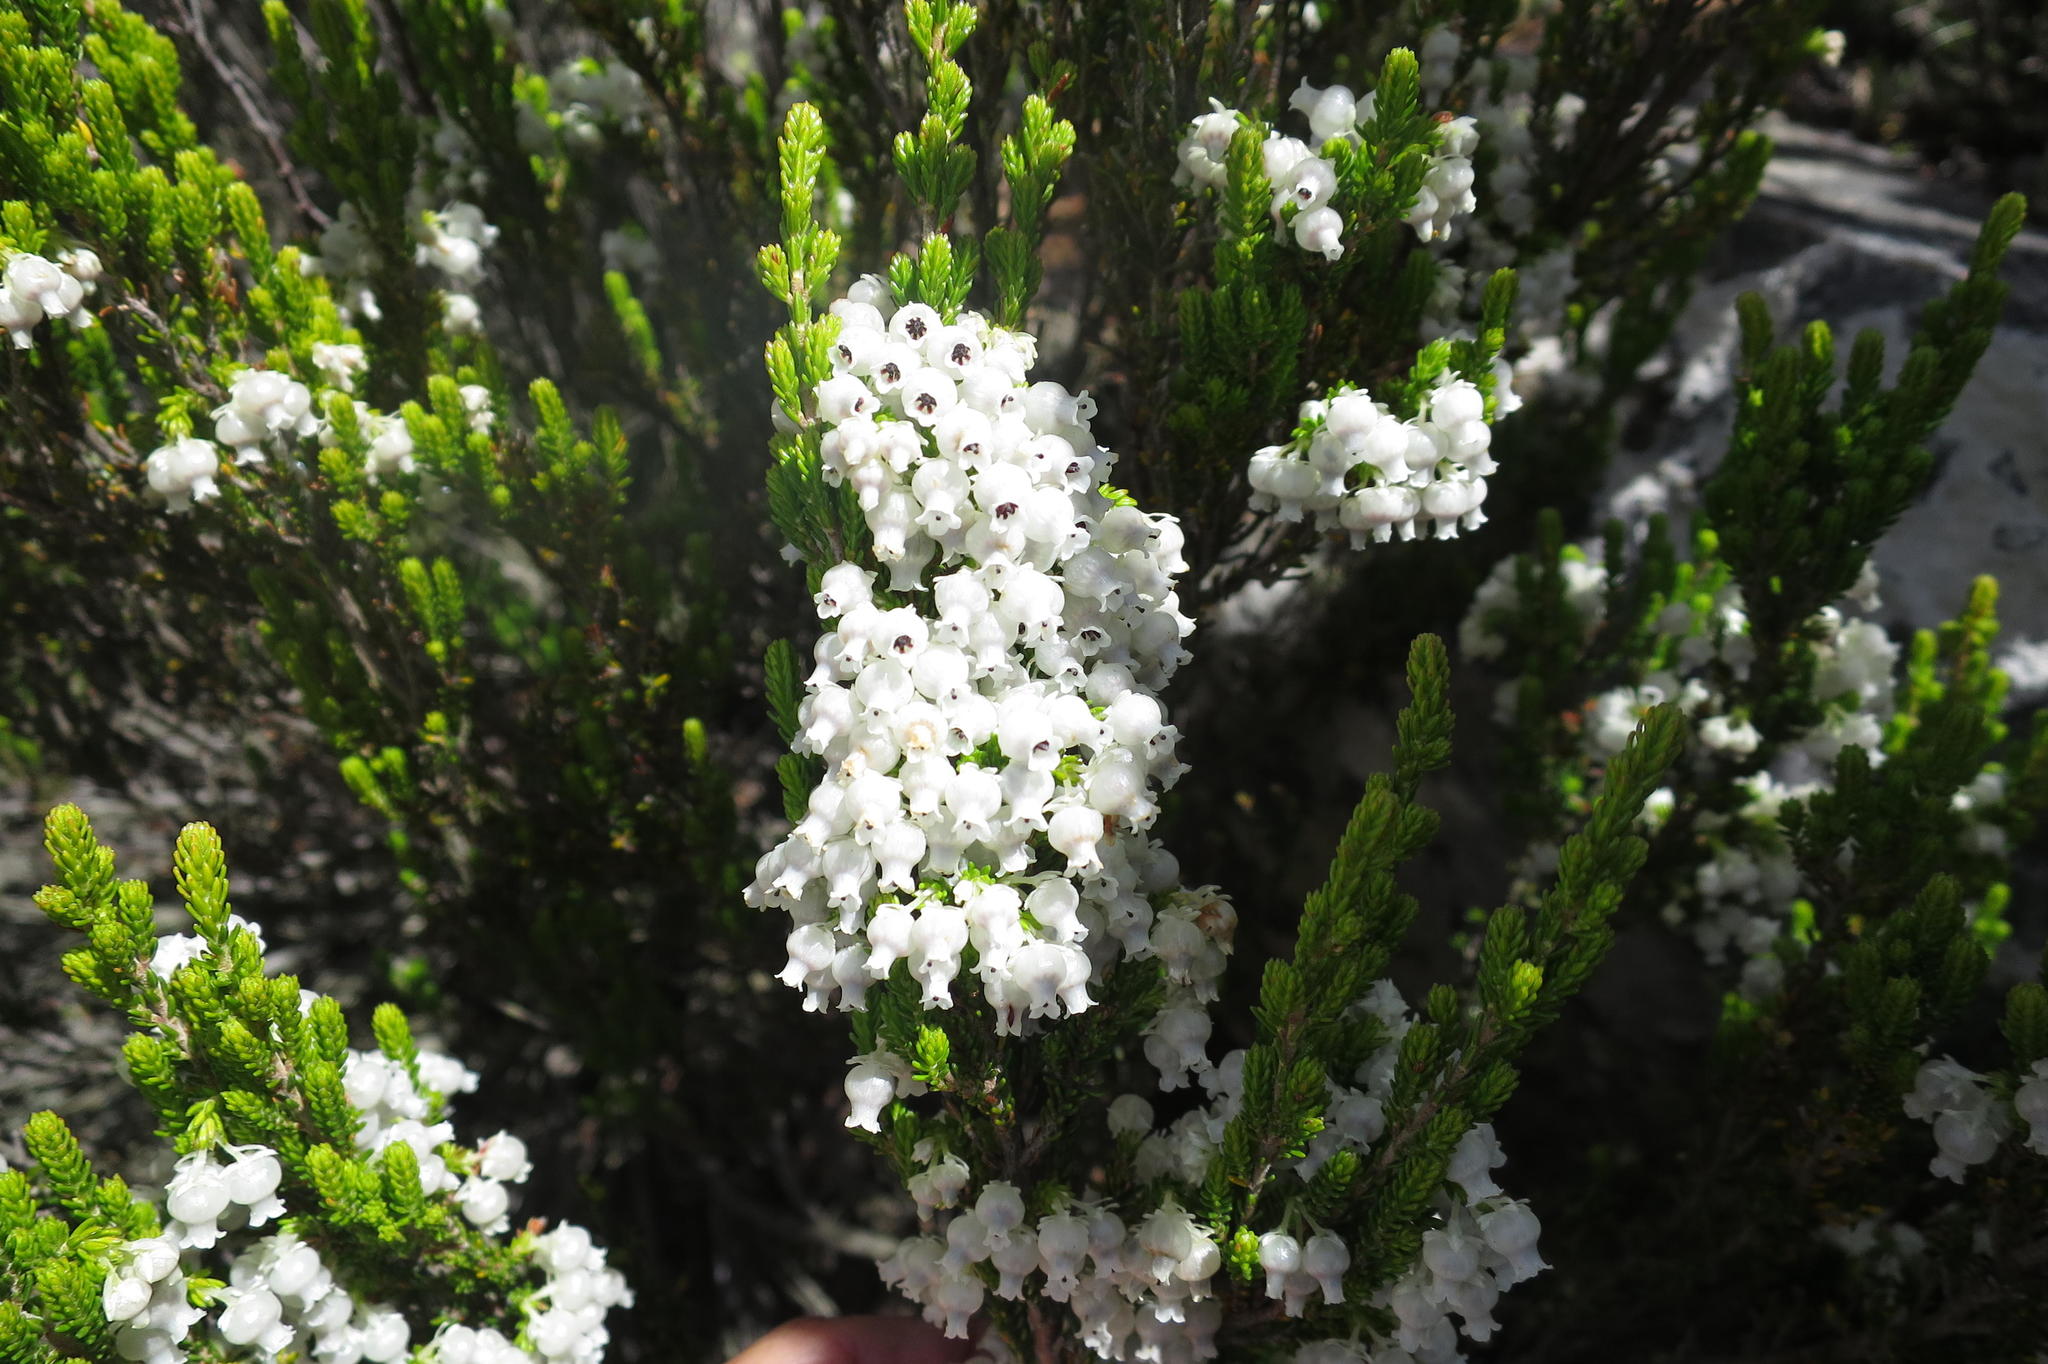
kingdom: Plantae
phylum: Tracheophyta
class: Magnoliopsida
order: Ericales
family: Ericaceae
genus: Erica
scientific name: Erica glomiflora
